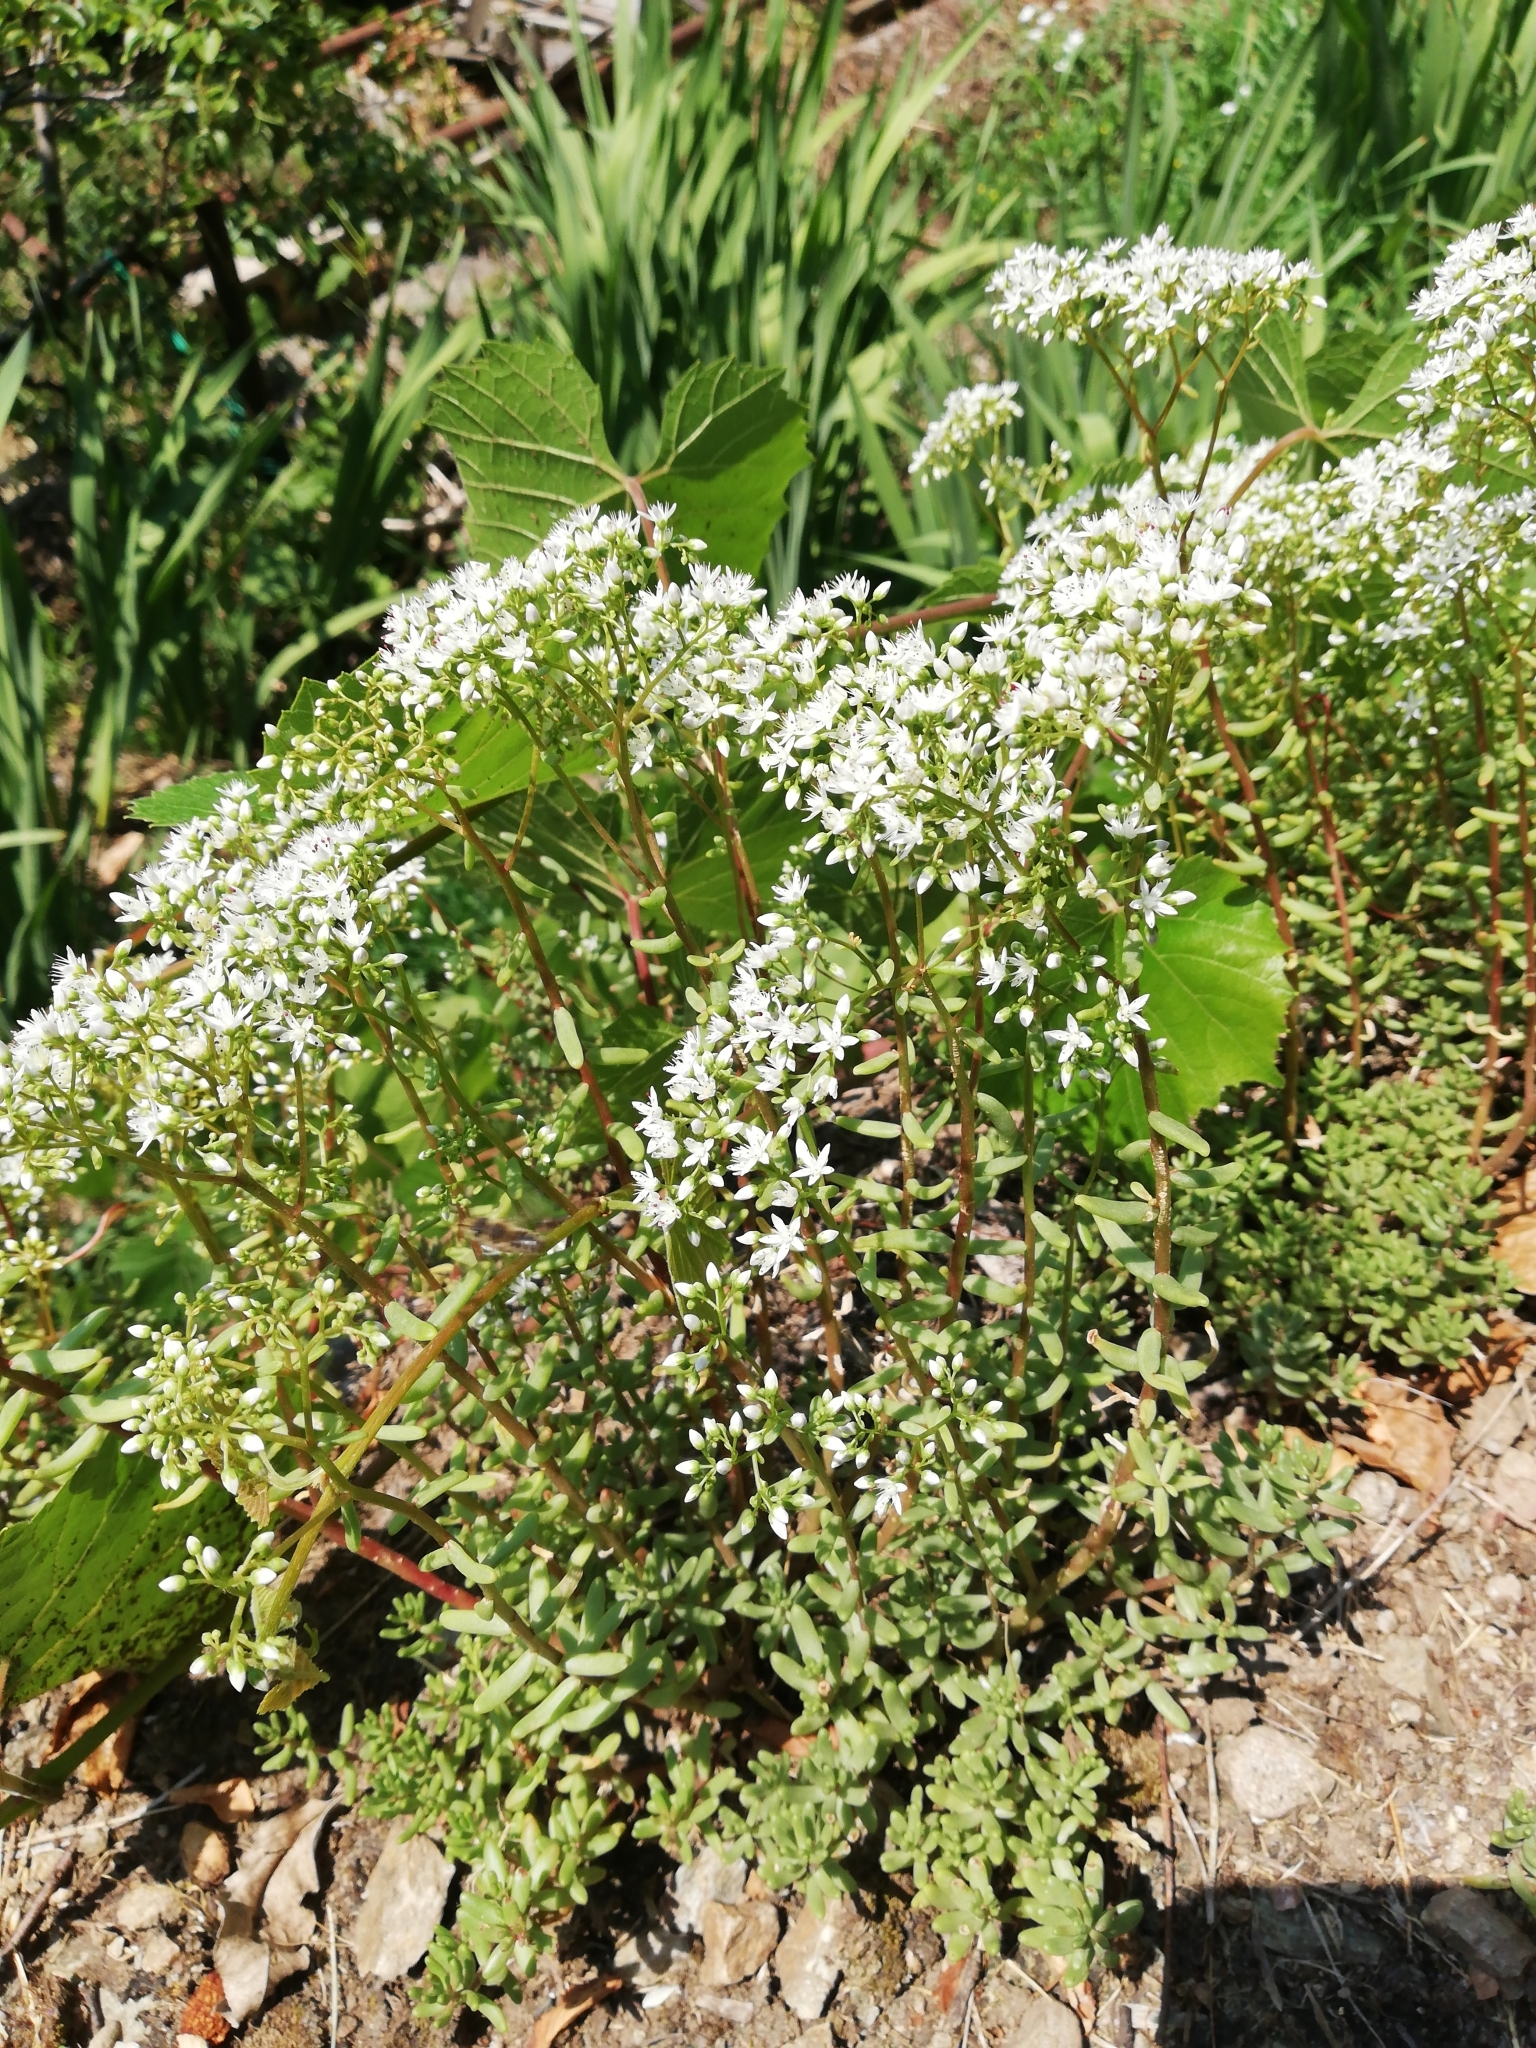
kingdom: Plantae
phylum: Tracheophyta
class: Magnoliopsida
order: Saxifragales
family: Crassulaceae
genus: Sedum
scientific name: Sedum album
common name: White stonecrop
